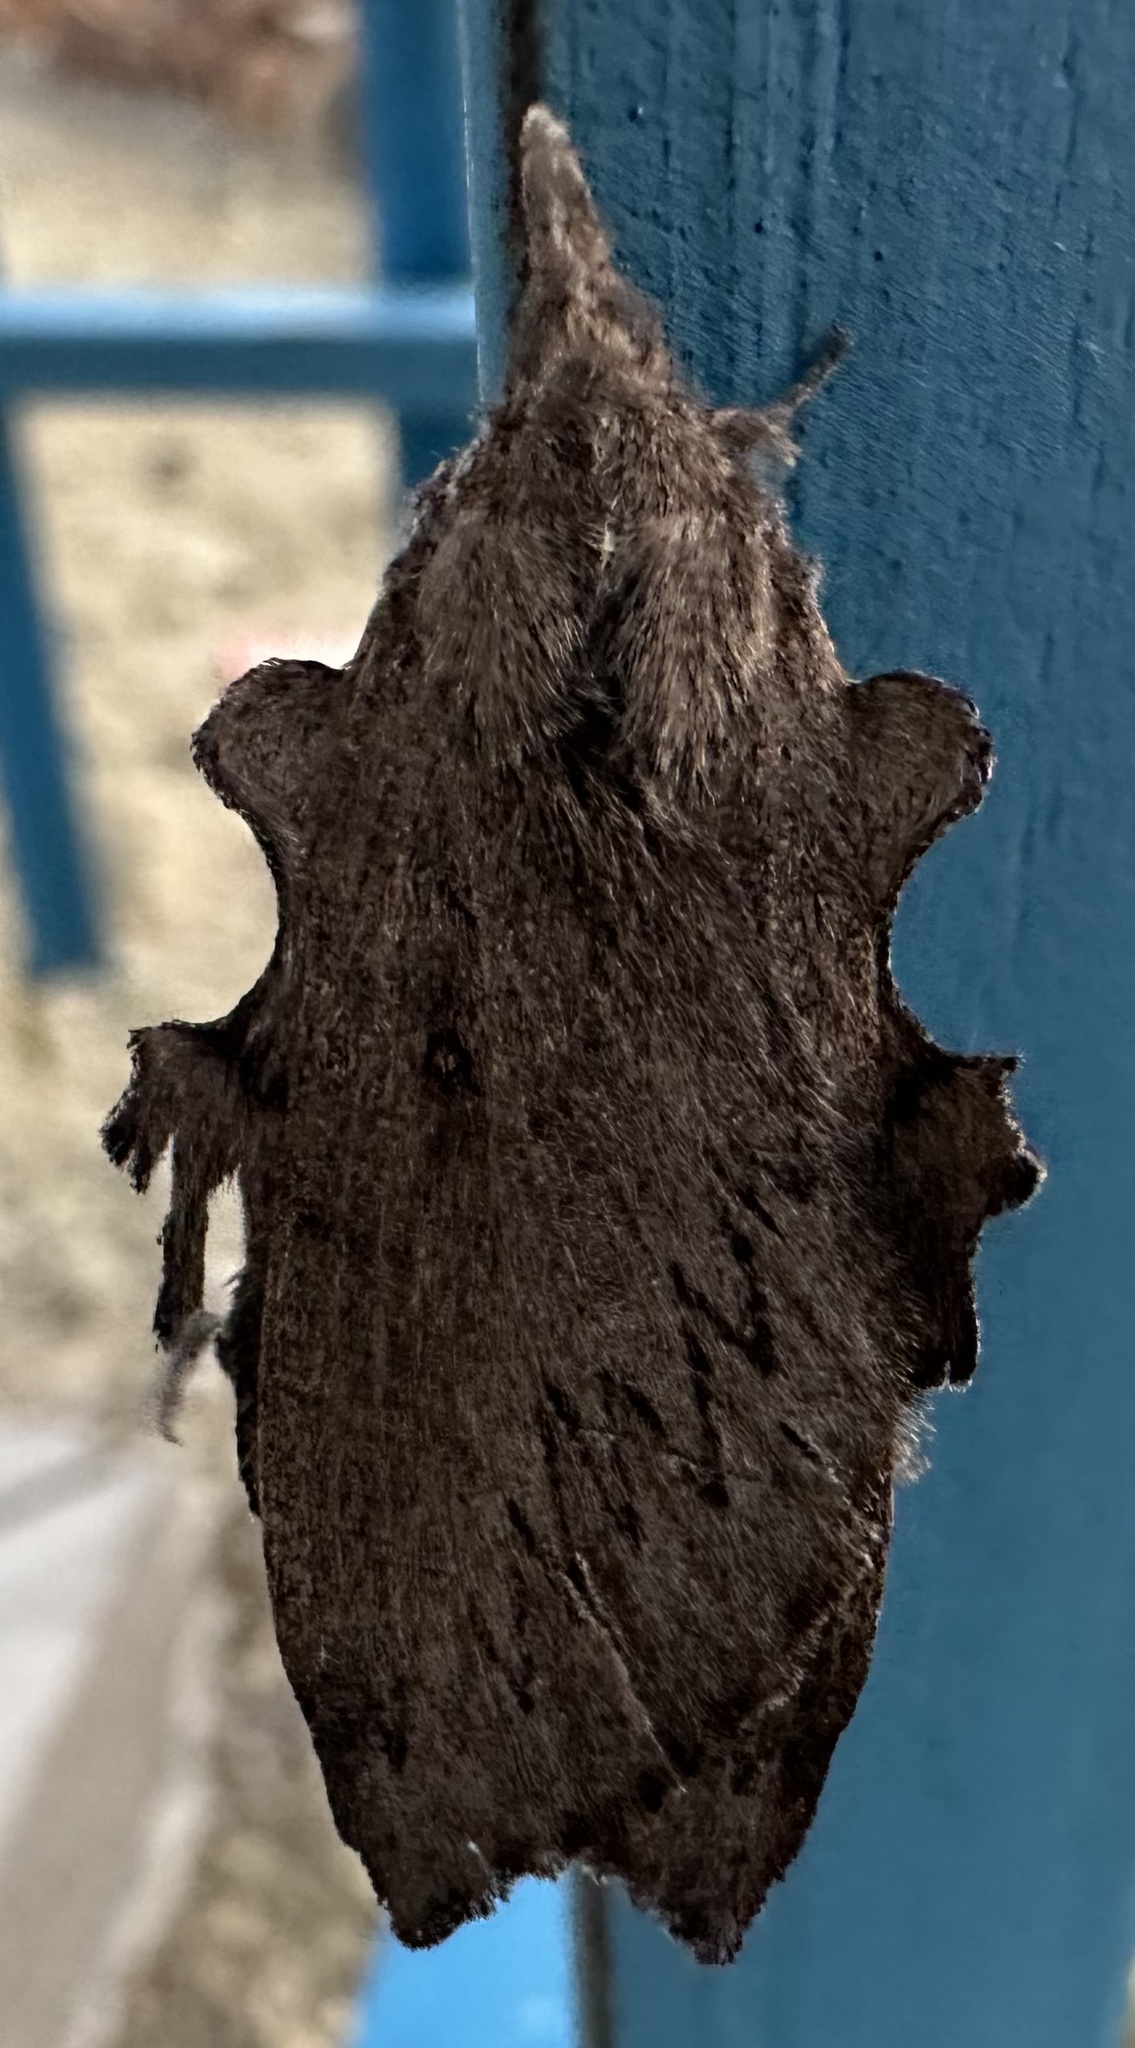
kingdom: Animalia
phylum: Arthropoda
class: Insecta
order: Lepidoptera
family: Lasiocampidae
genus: Rhinobombyx
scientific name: Rhinobombyx cuneata
